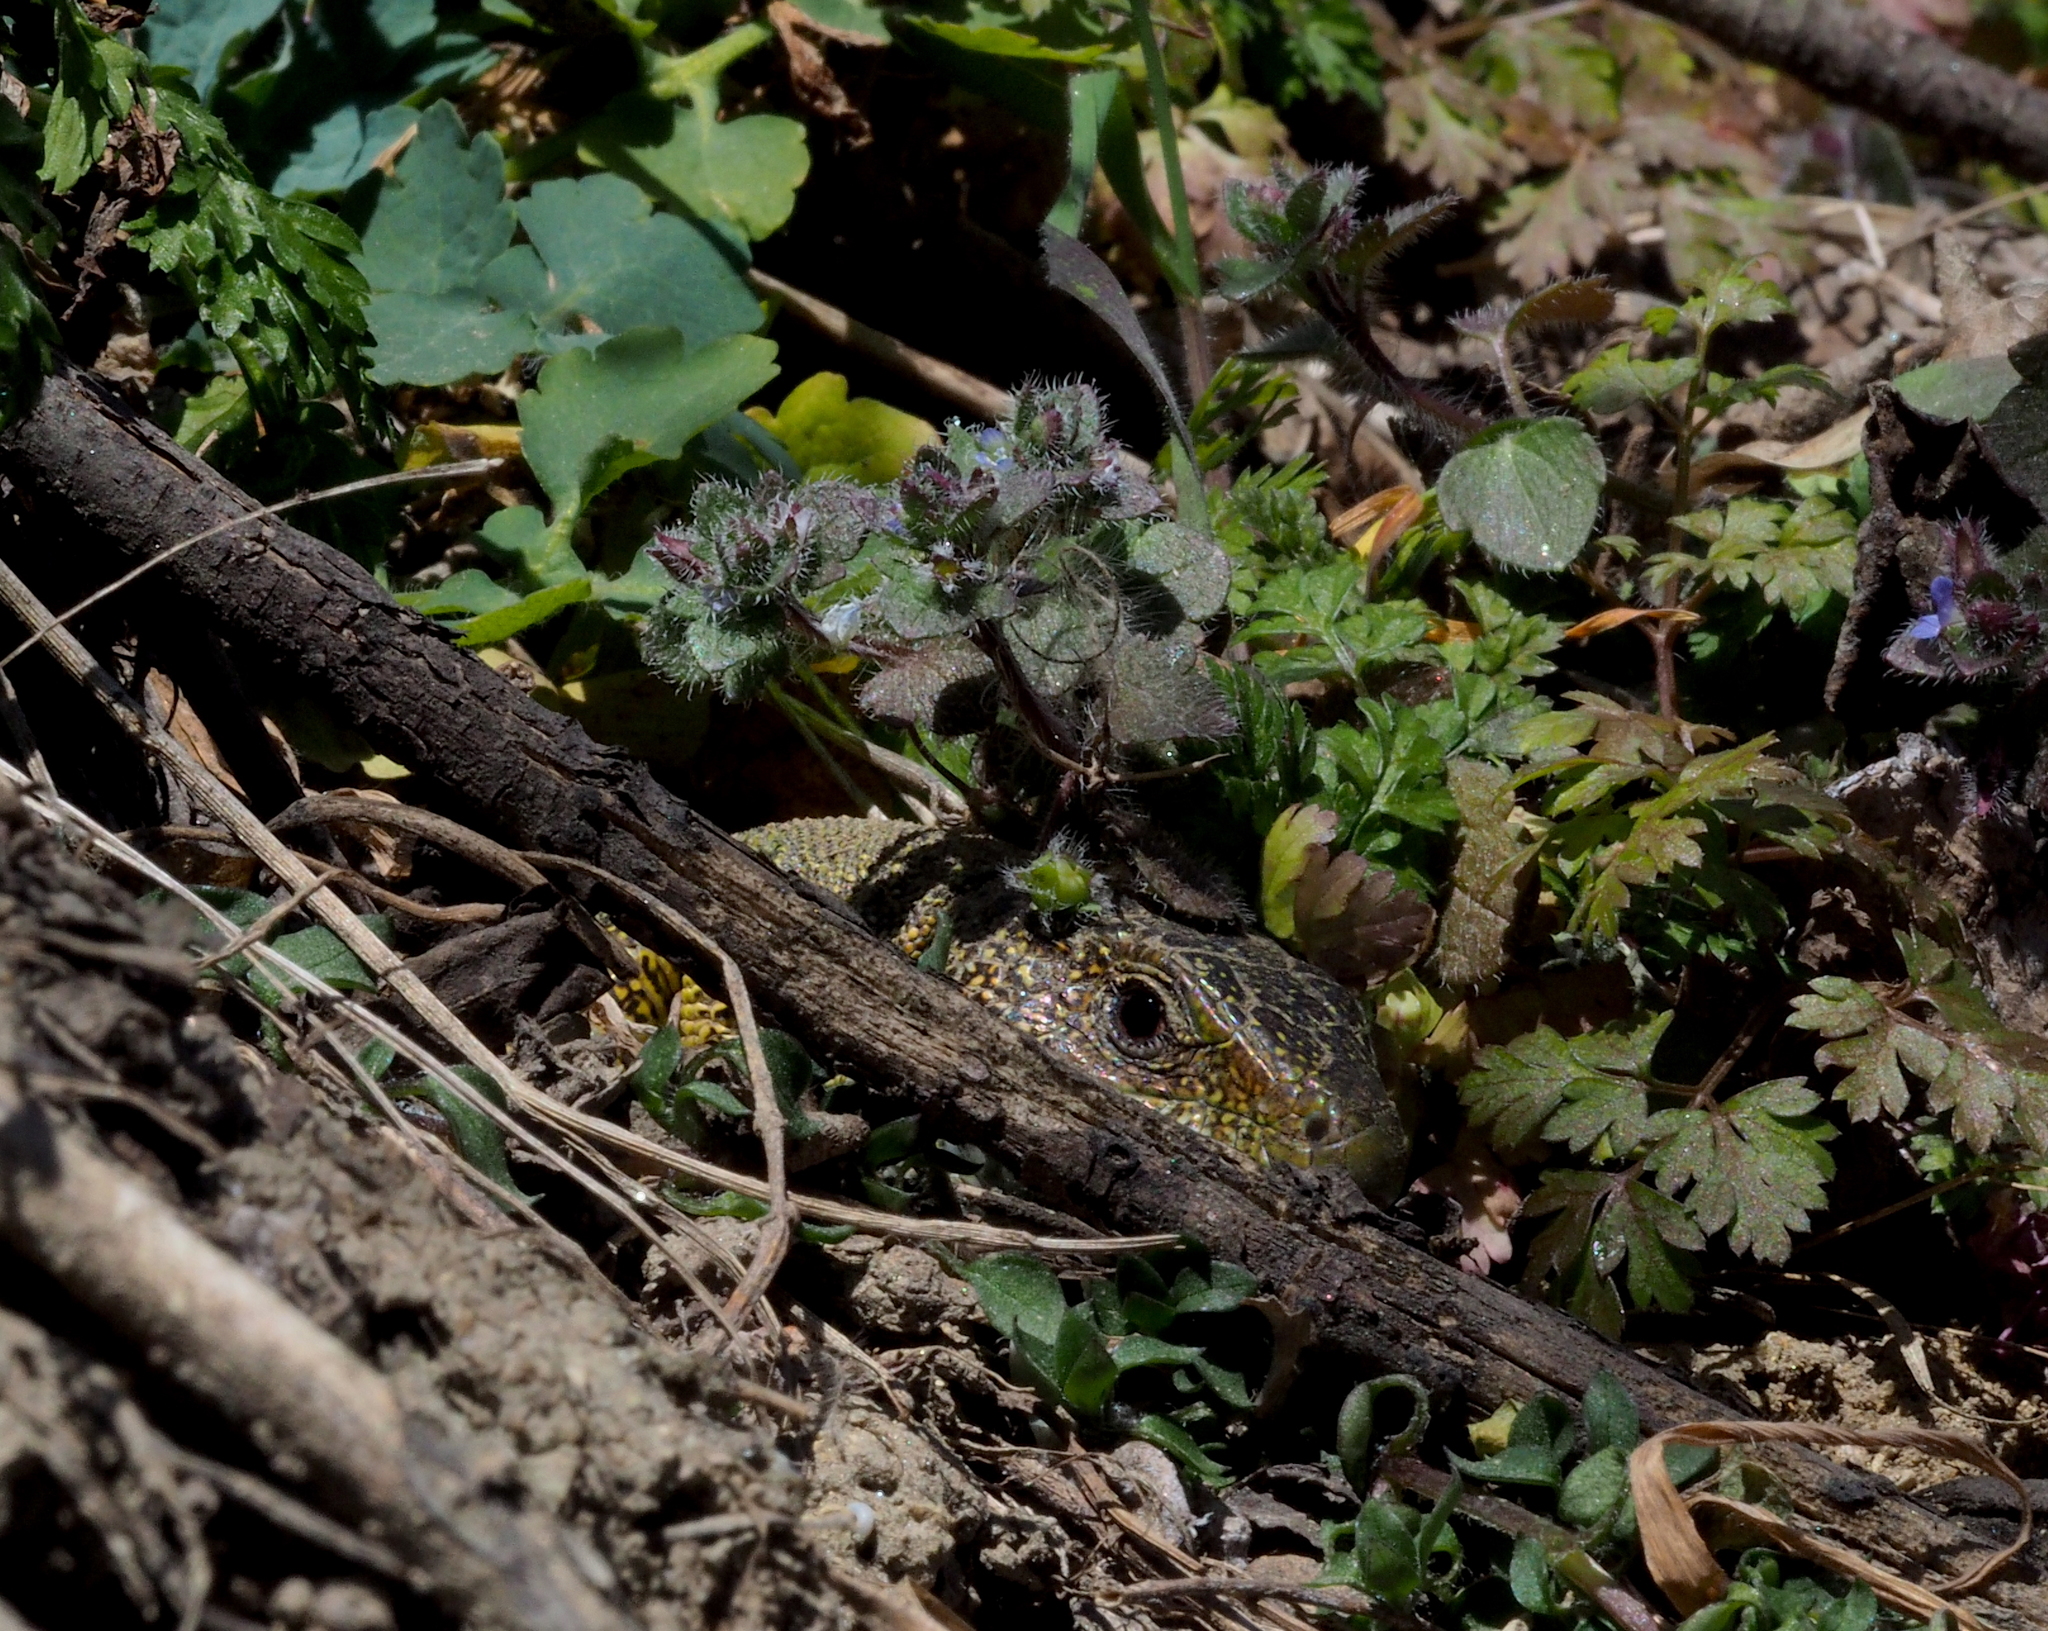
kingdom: Animalia
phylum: Chordata
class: Squamata
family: Lacertidae
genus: Lacerta
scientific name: Lacerta viridis
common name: European green lizard
